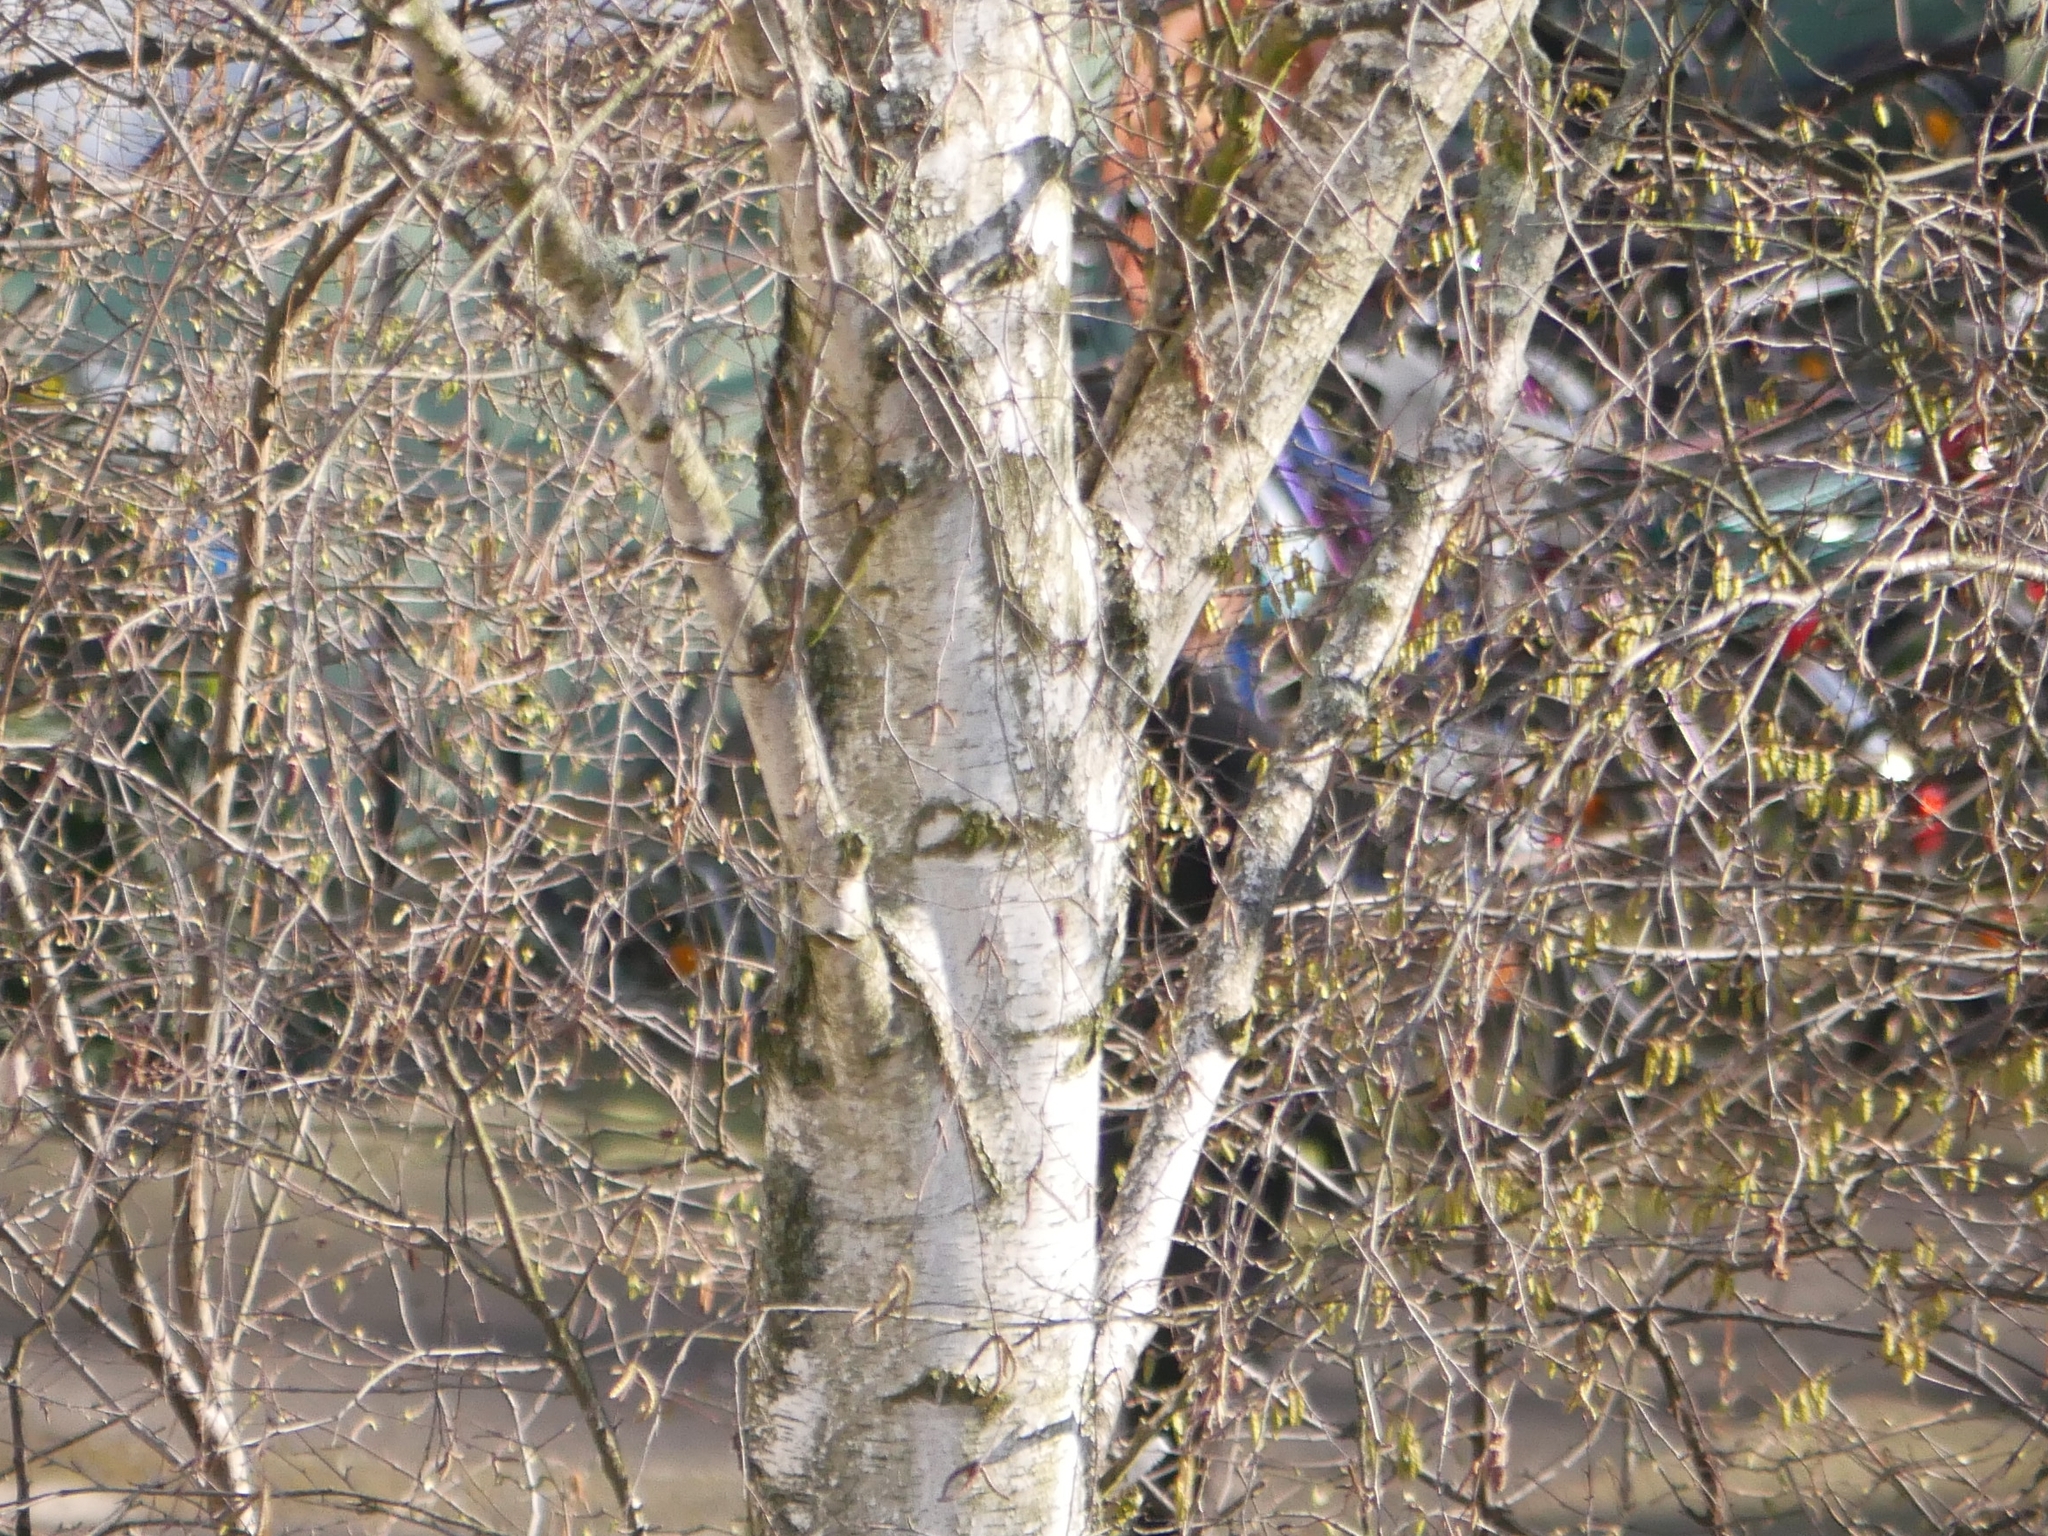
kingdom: Plantae
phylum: Tracheophyta
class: Magnoliopsida
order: Fagales
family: Betulaceae
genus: Betula
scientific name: Betula pendula
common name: Silver birch
